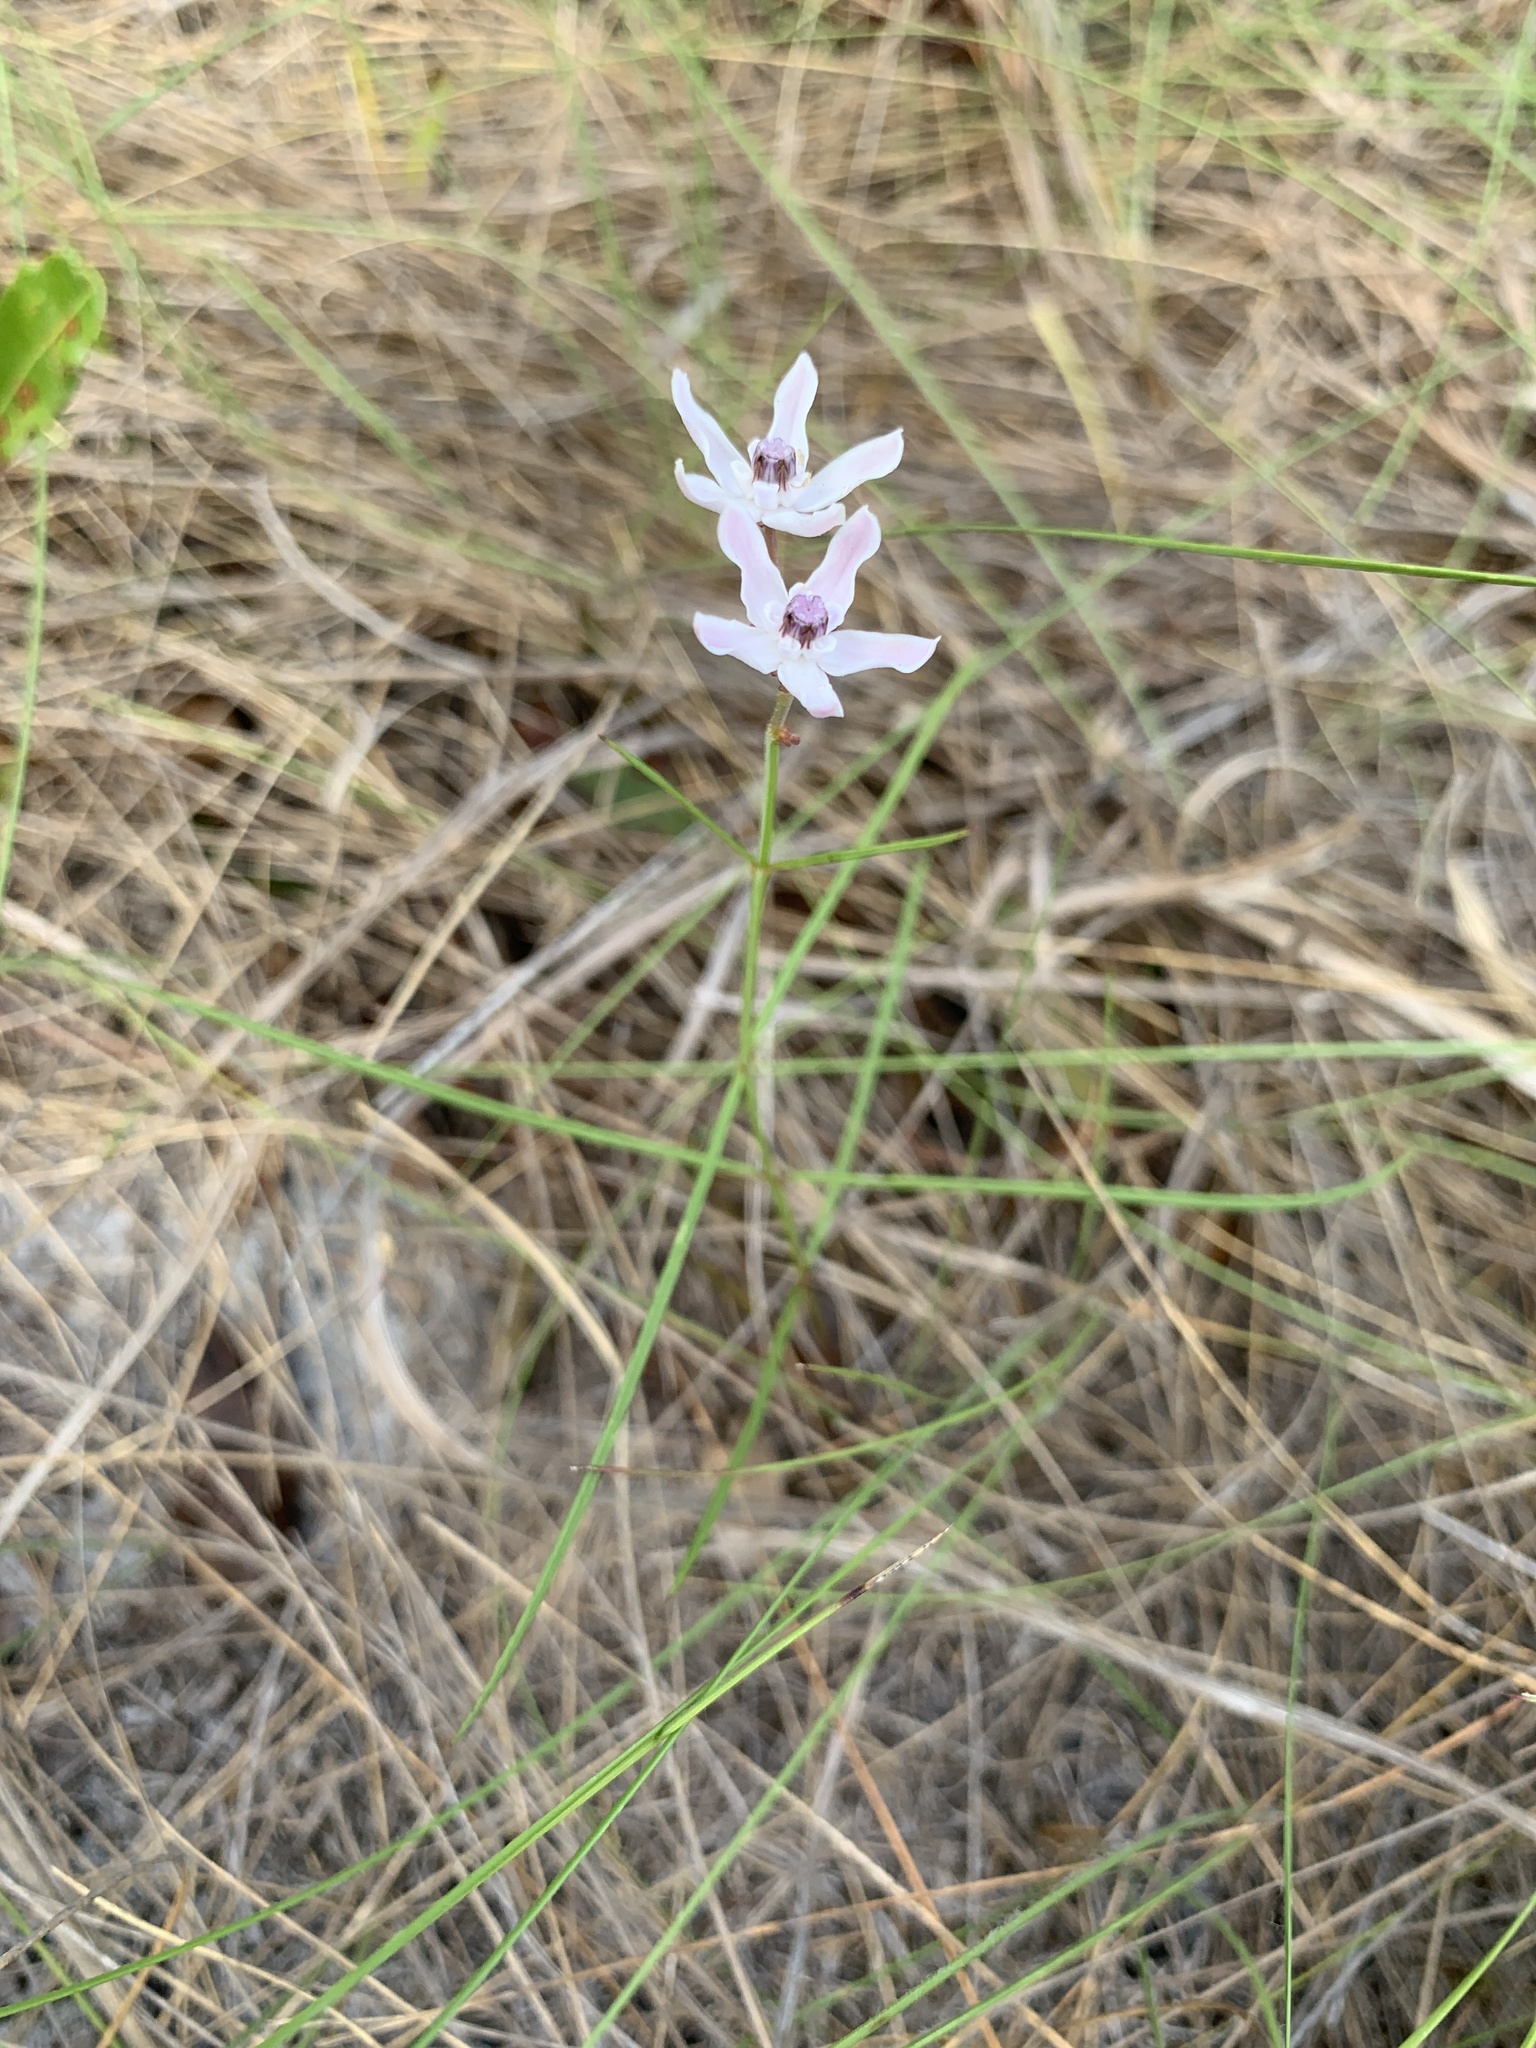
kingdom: Plantae
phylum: Tracheophyta
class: Magnoliopsida
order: Gentianales
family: Apocynaceae
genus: Asclepias
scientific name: Asclepias feayi
